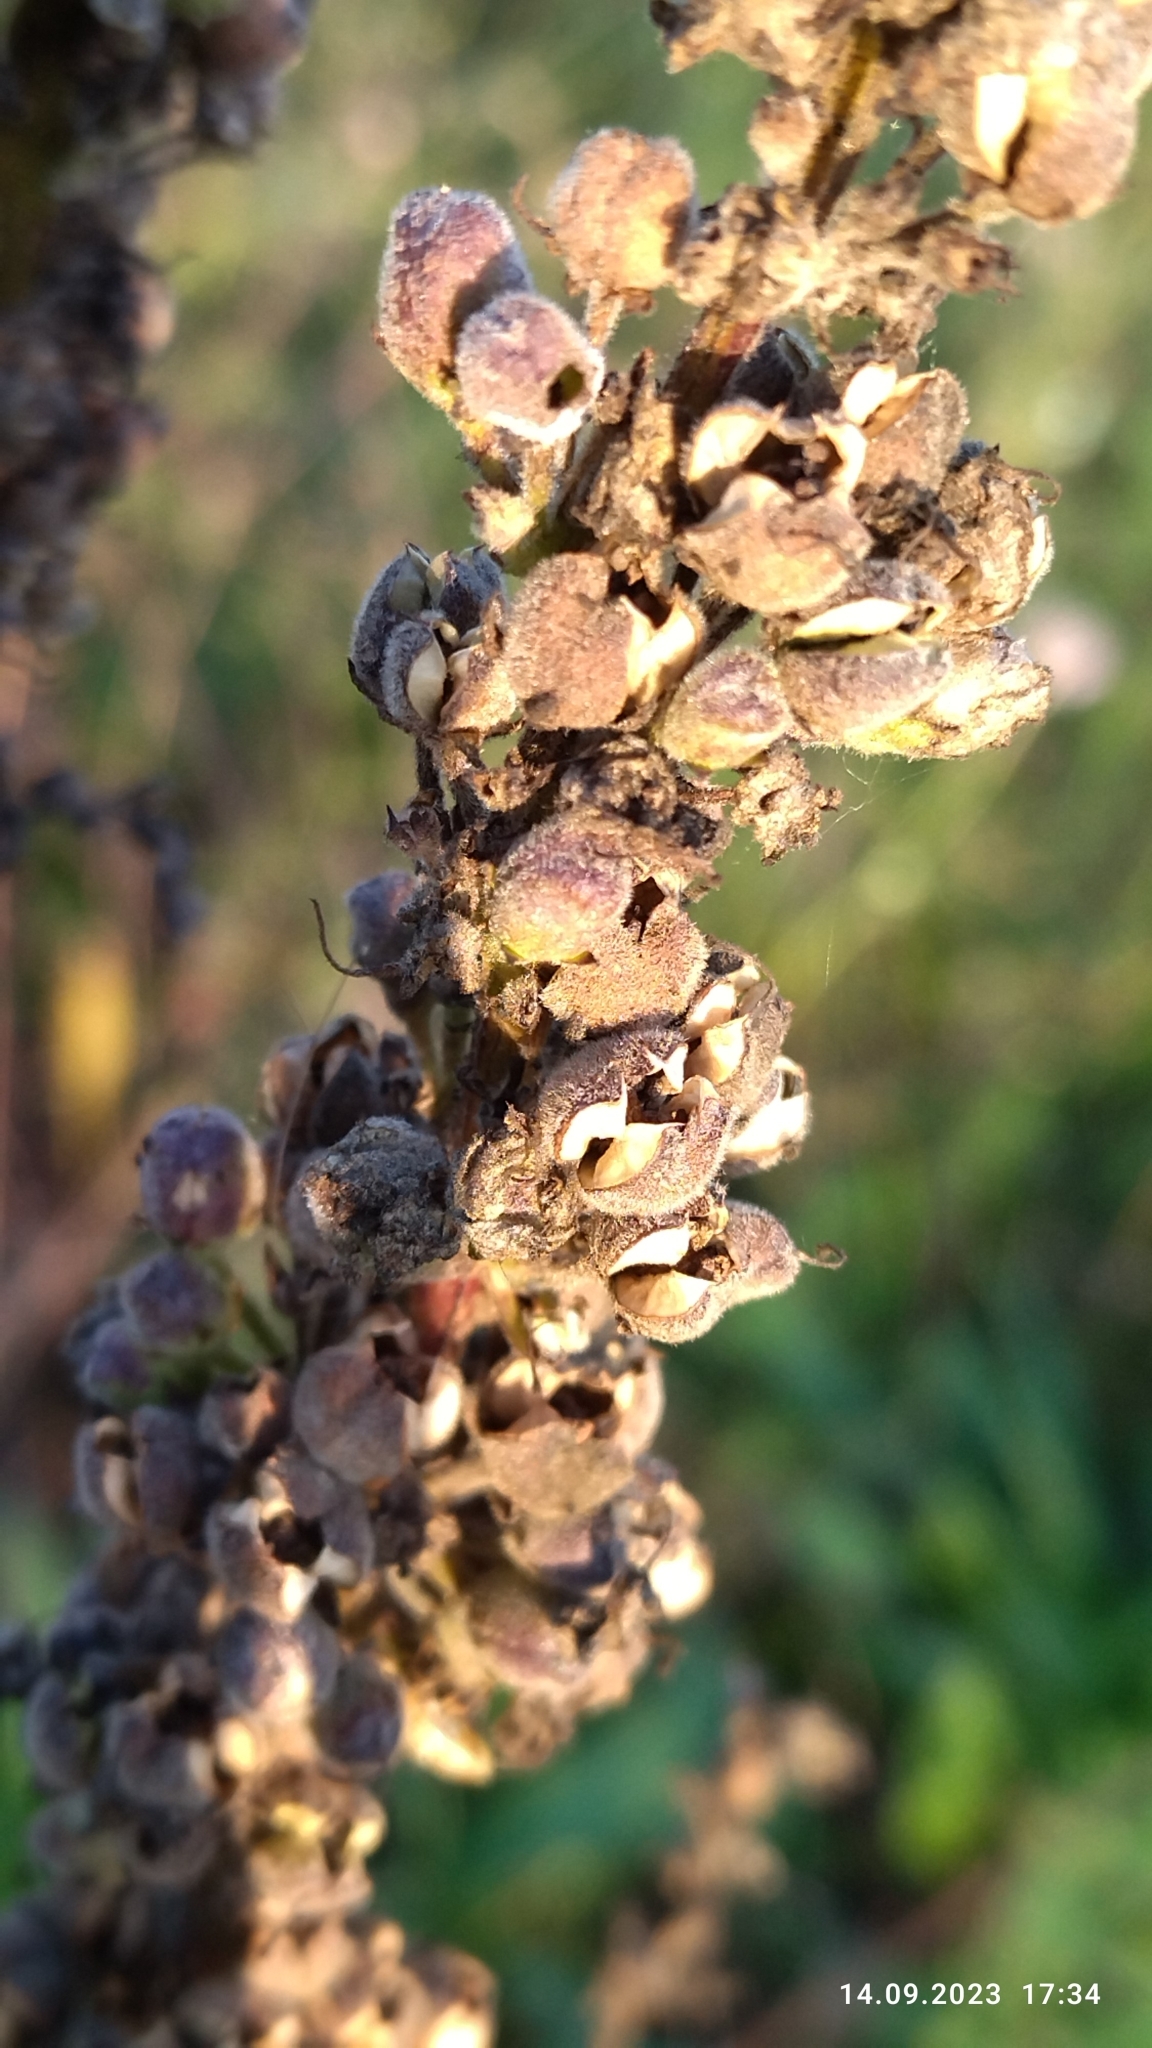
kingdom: Plantae
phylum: Tracheophyta
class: Magnoliopsida
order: Lamiales
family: Scrophulariaceae
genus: Verbascum
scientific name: Verbascum nigrum
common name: Dark mullein
